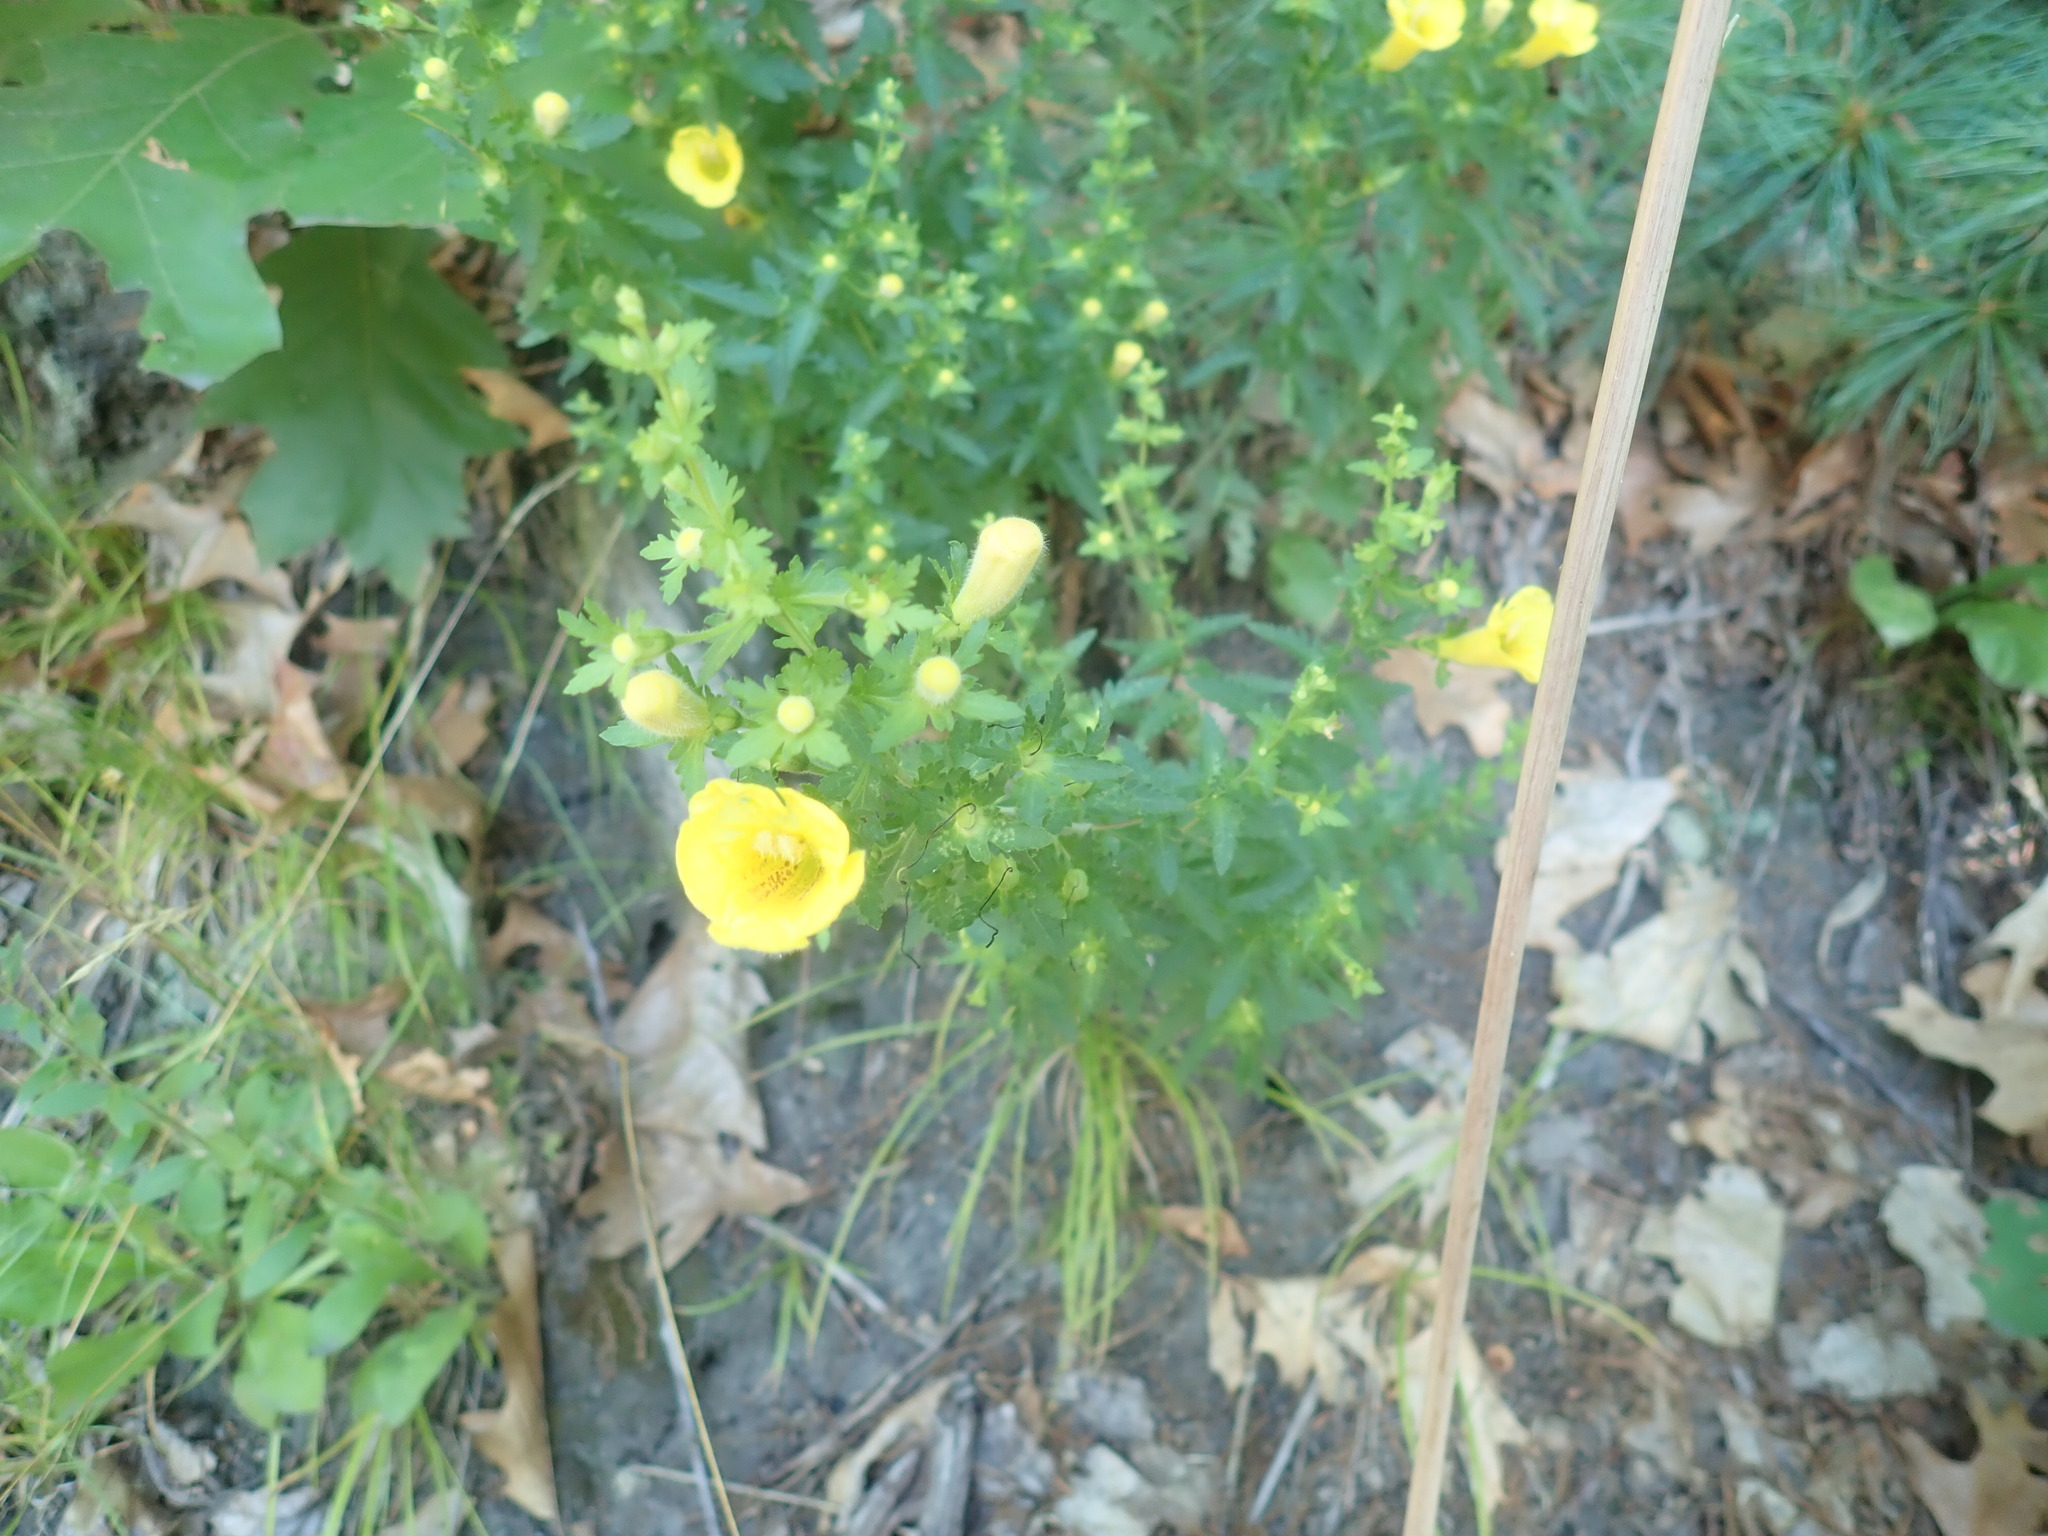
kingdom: Plantae
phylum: Tracheophyta
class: Magnoliopsida
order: Lamiales
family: Orobanchaceae
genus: Aureolaria
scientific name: Aureolaria pedicularia
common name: Annual false foxglove
